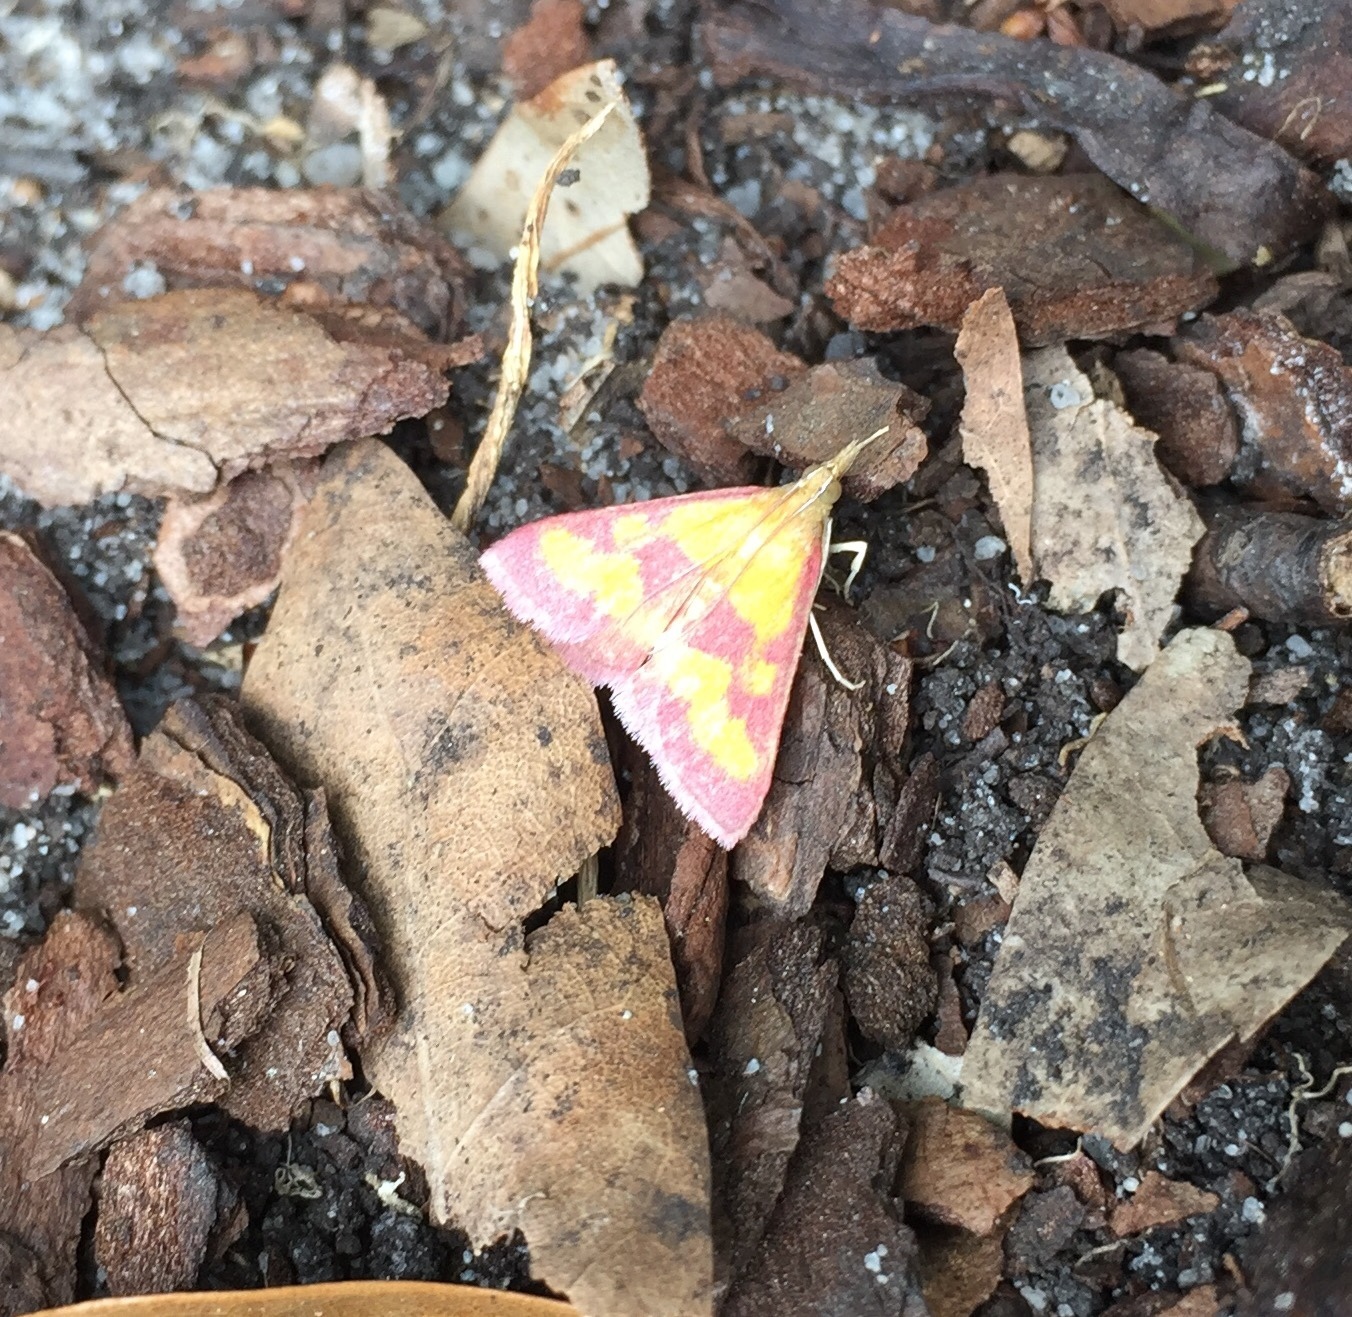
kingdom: Animalia
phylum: Arthropoda
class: Insecta
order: Lepidoptera
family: Crambidae
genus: Pyrausta
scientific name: Pyrausta laticlavia
